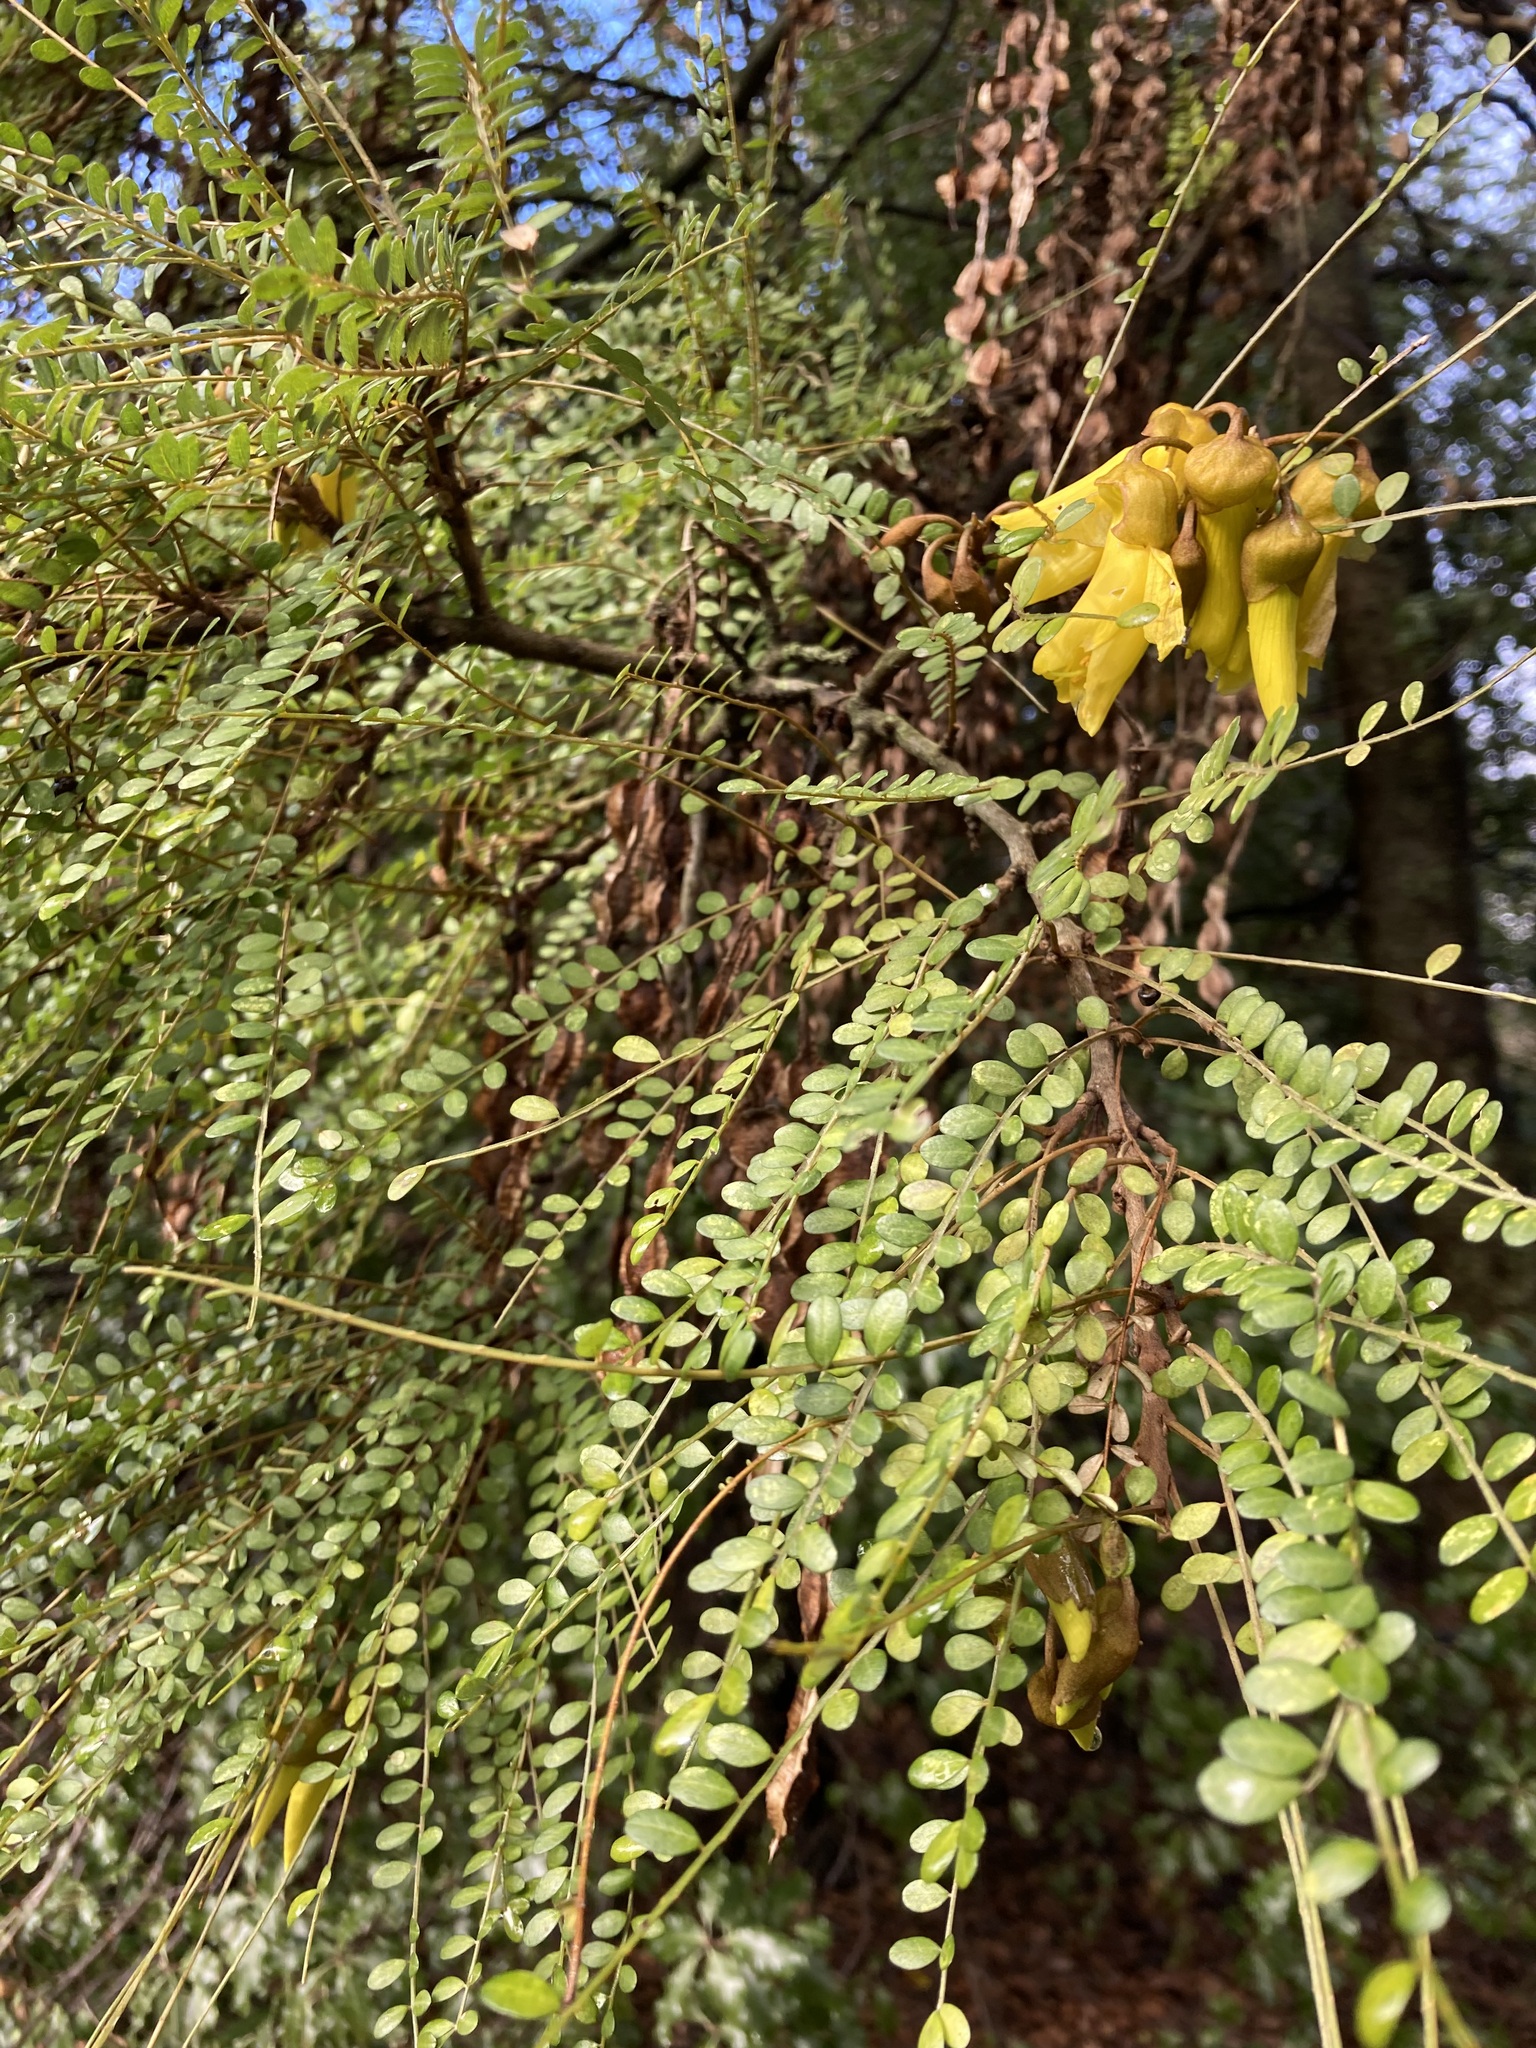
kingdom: Plantae
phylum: Tracheophyta
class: Magnoliopsida
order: Fabales
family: Fabaceae
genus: Sophora
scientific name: Sophora microphylla
